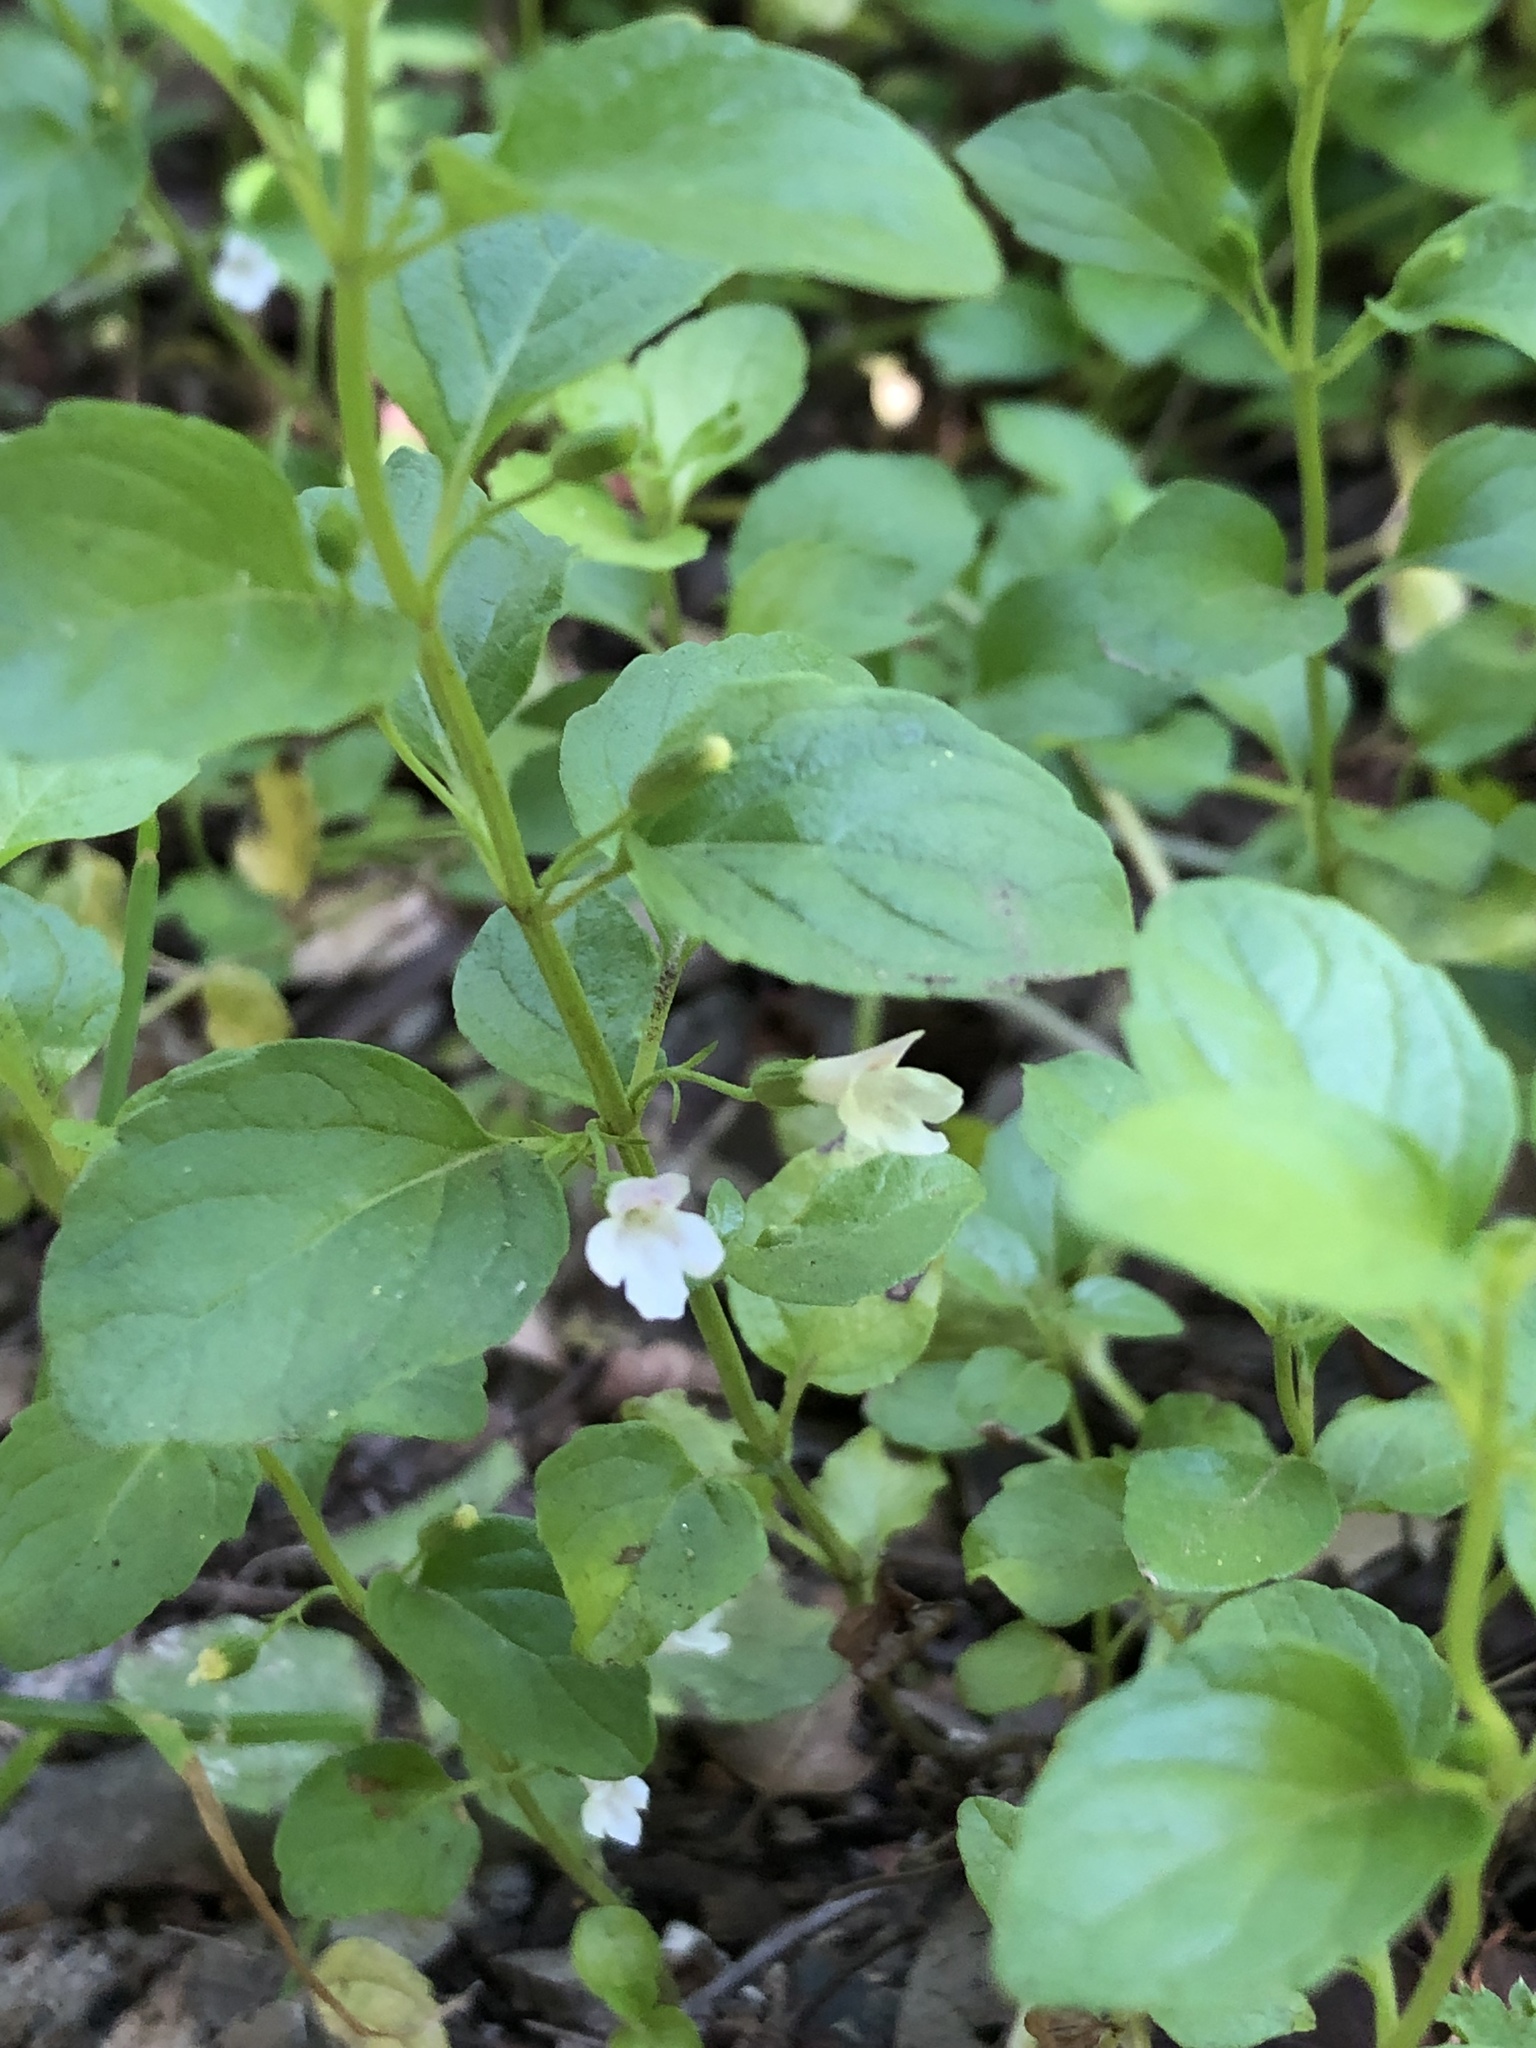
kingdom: Plantae
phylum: Tracheophyta
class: Magnoliopsida
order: Lamiales
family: Lamiaceae
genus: Micromeria
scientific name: Micromeria douglasii
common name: Yerba buena
